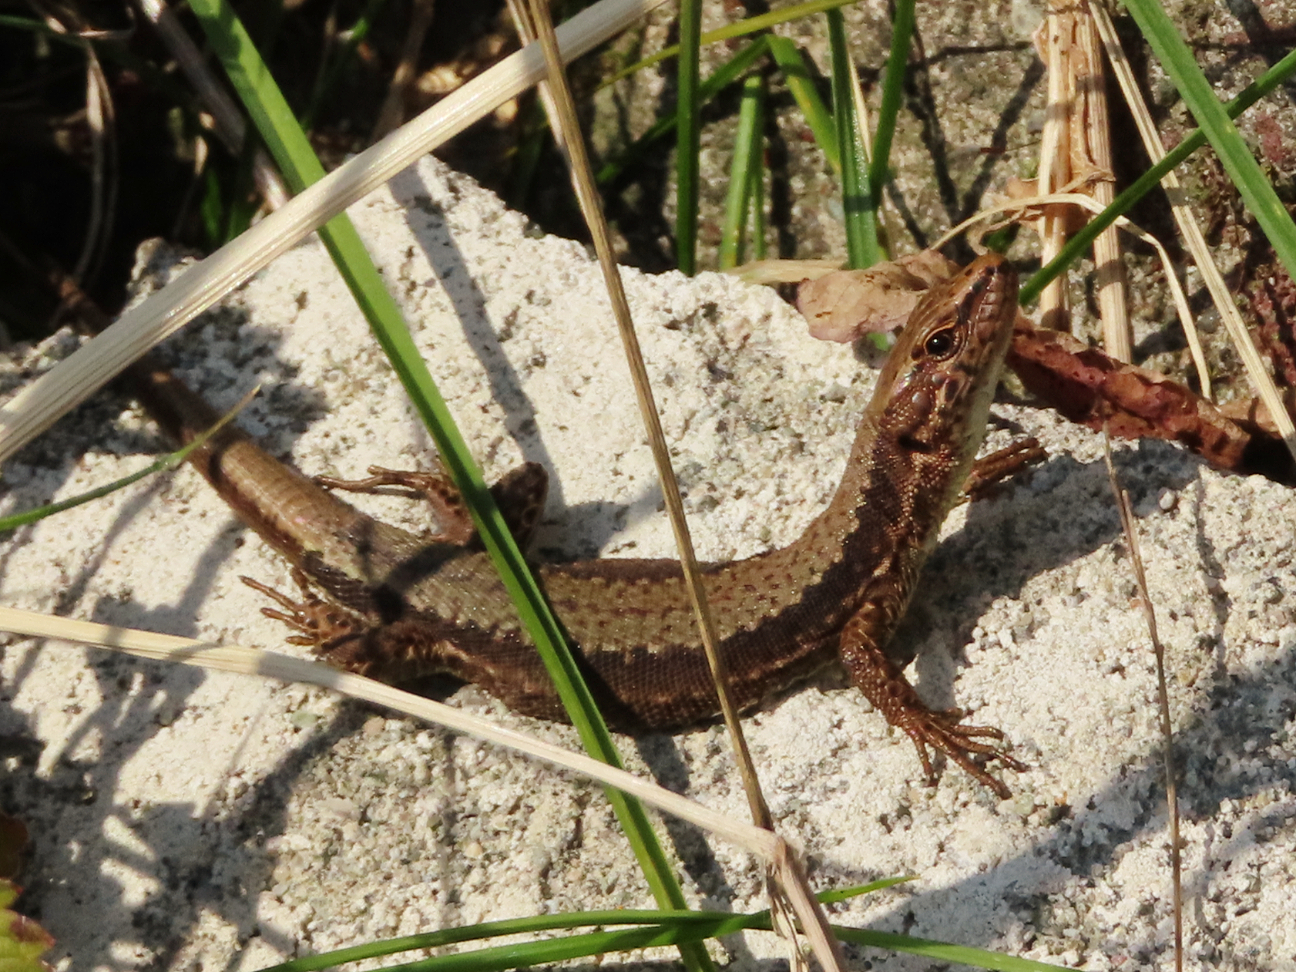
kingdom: Animalia
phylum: Chordata
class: Squamata
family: Lacertidae
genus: Darevskia
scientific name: Darevskia derjugini
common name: Derjugin's lizard
